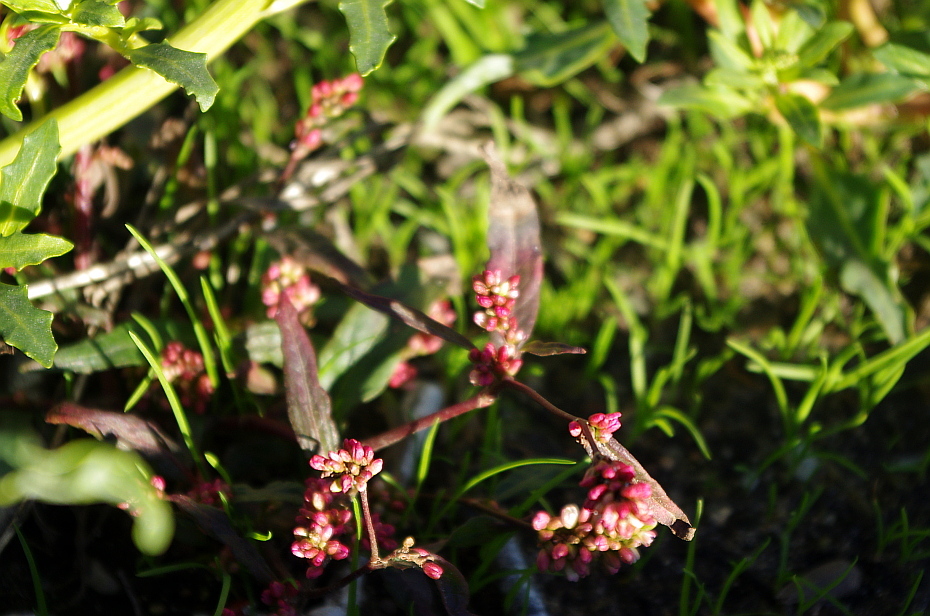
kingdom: Plantae
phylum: Tracheophyta
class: Magnoliopsida
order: Caryophyllales
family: Polygonaceae
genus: Persicaria
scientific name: Persicaria lapathifolia
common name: Curlytop knotweed
